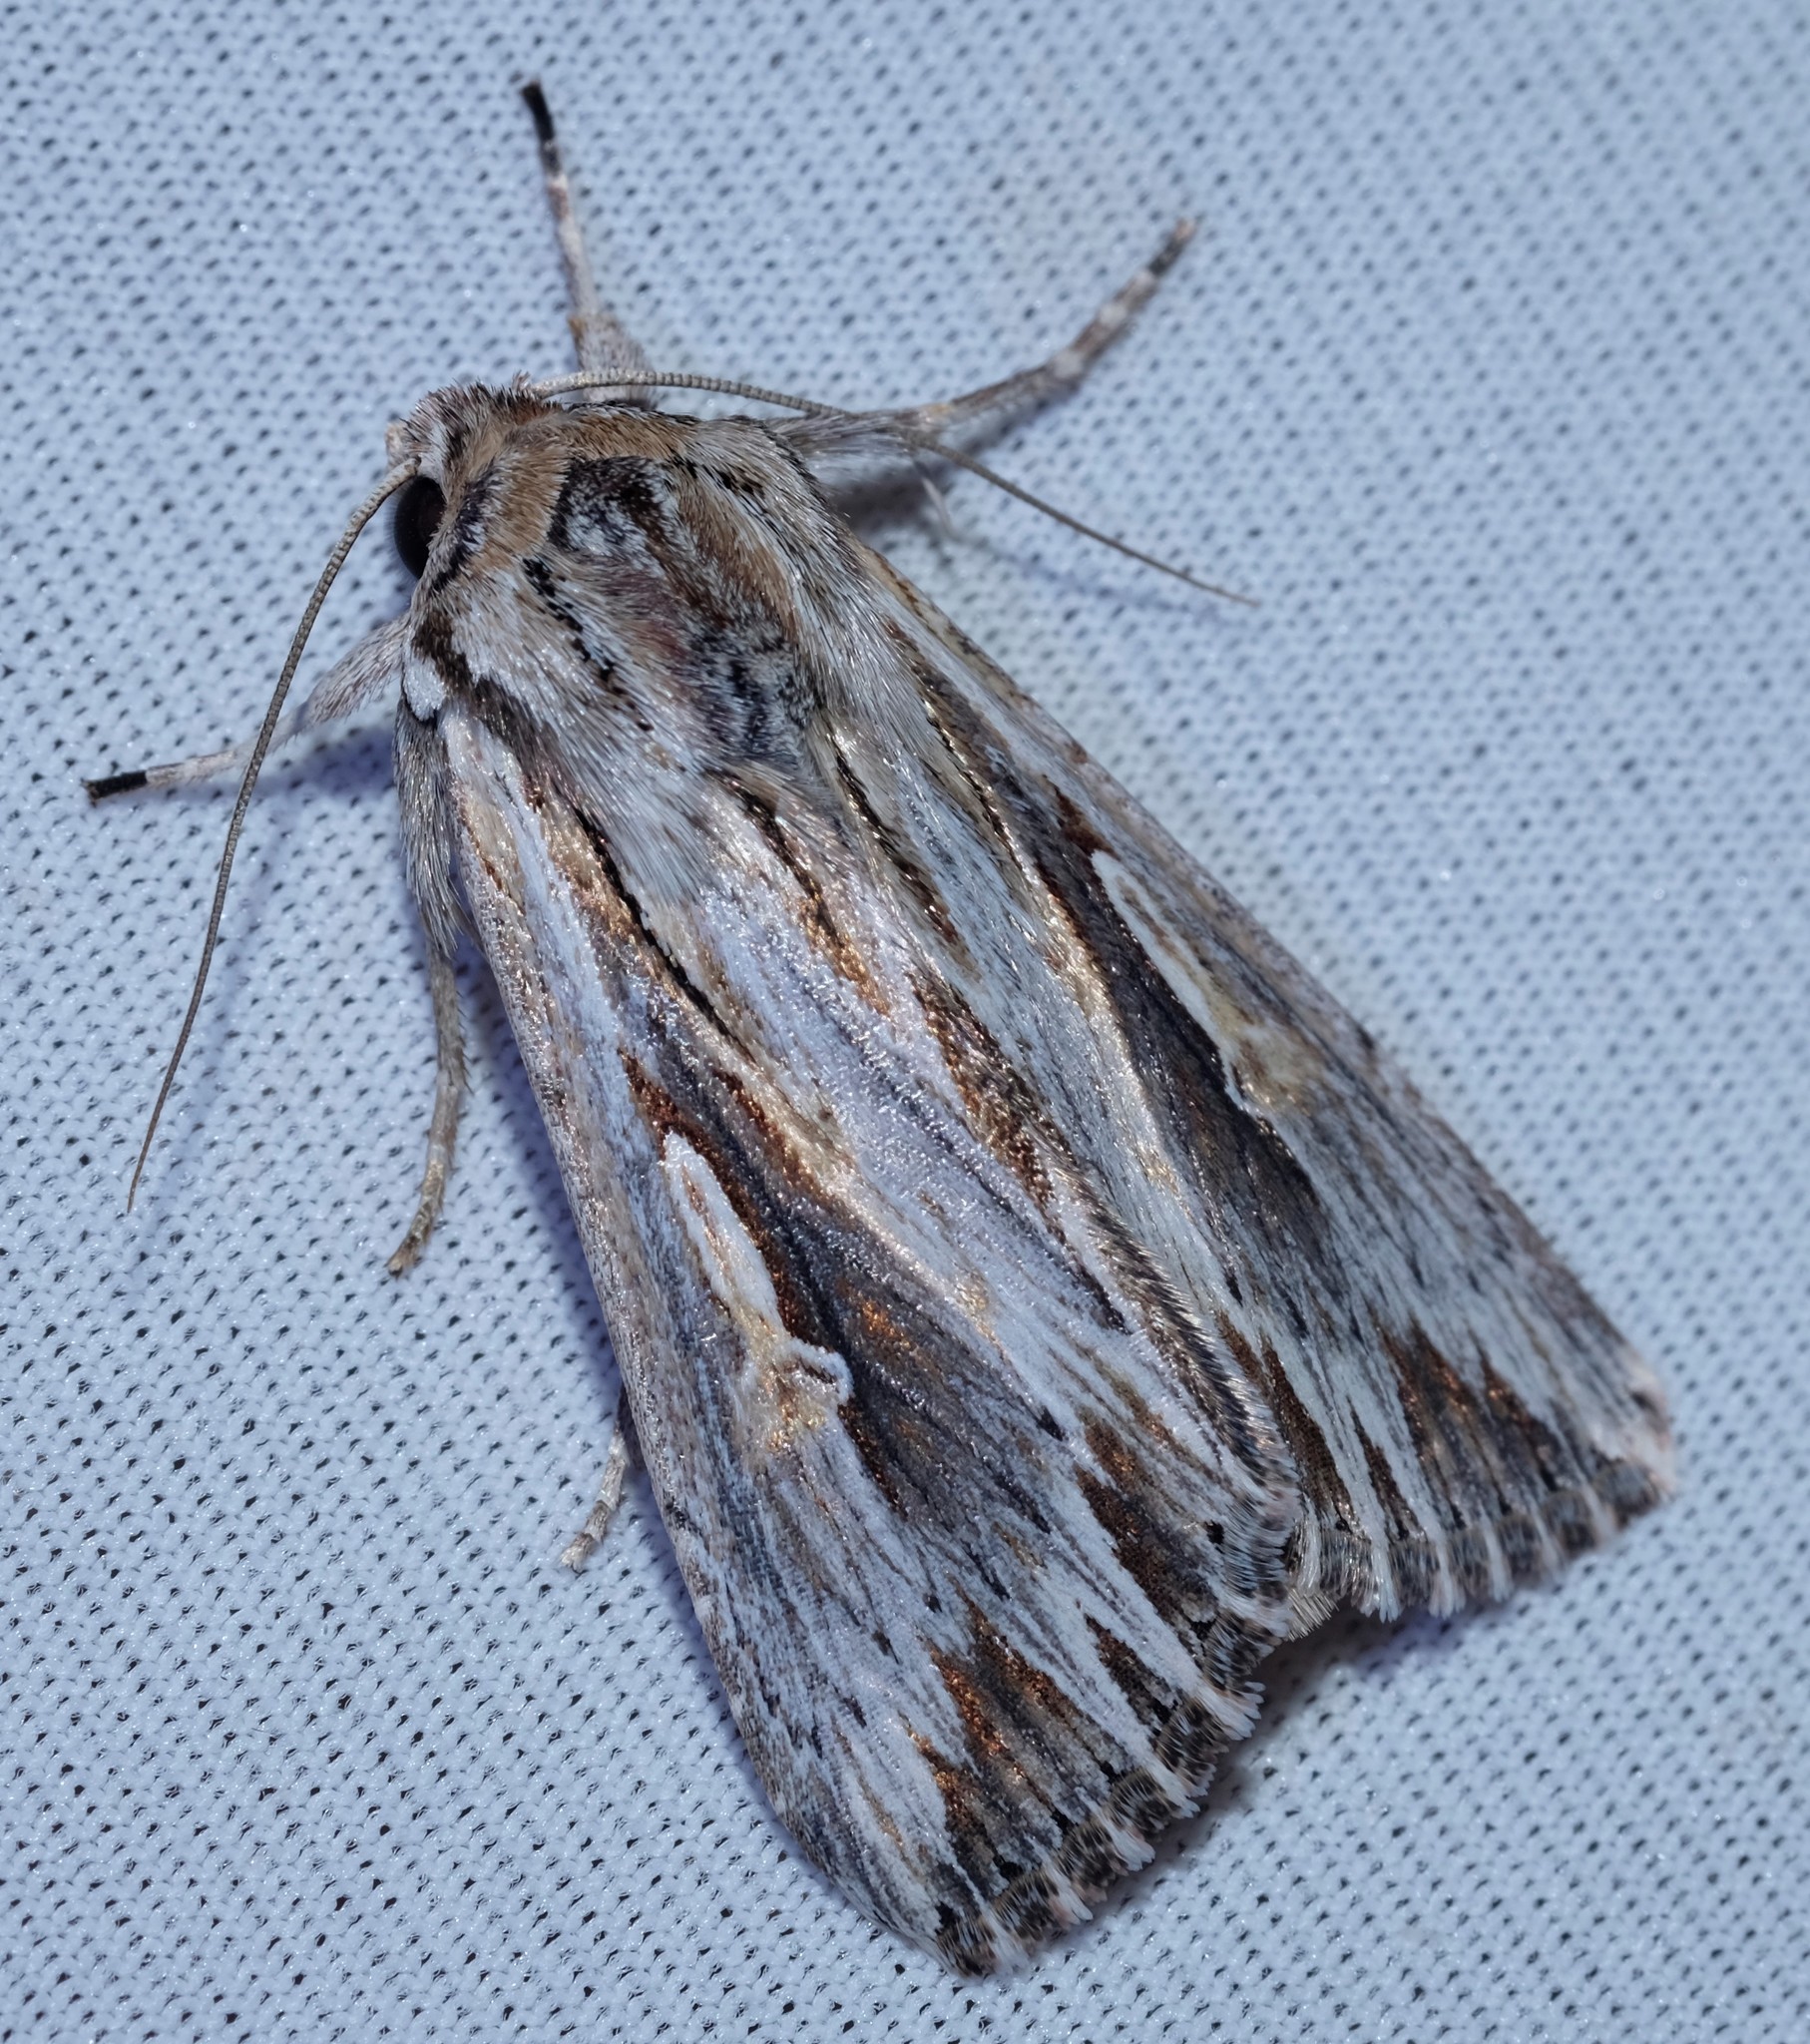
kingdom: Animalia
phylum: Arthropoda
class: Insecta
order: Lepidoptera
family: Noctuidae
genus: Persectania
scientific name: Persectania ewingii
